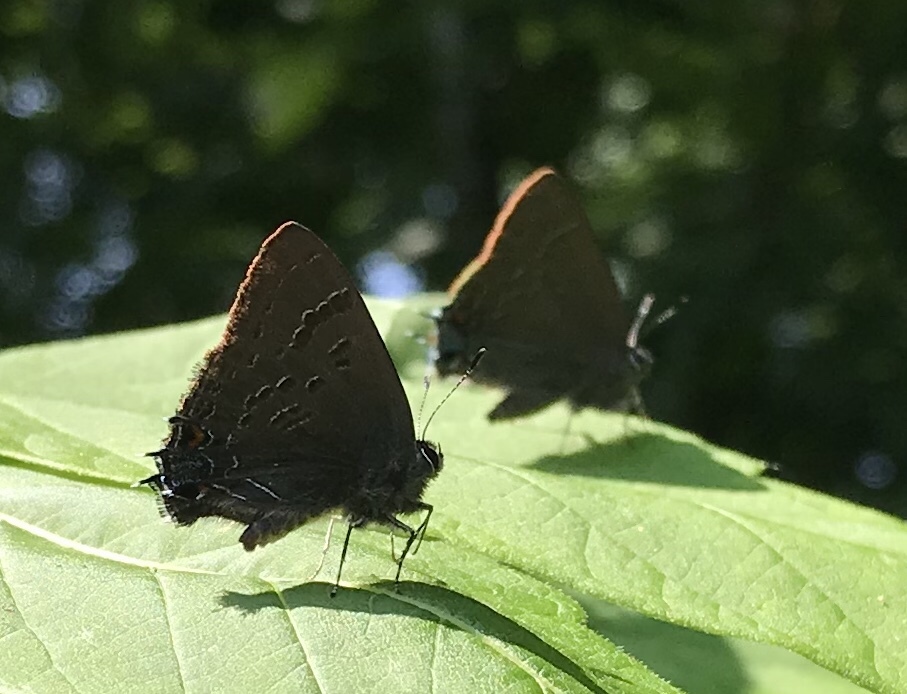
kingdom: Animalia
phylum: Arthropoda
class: Insecta
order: Lepidoptera
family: Lycaenidae
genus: Satyrium
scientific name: Satyrium calanus
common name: Banded hairstreak
